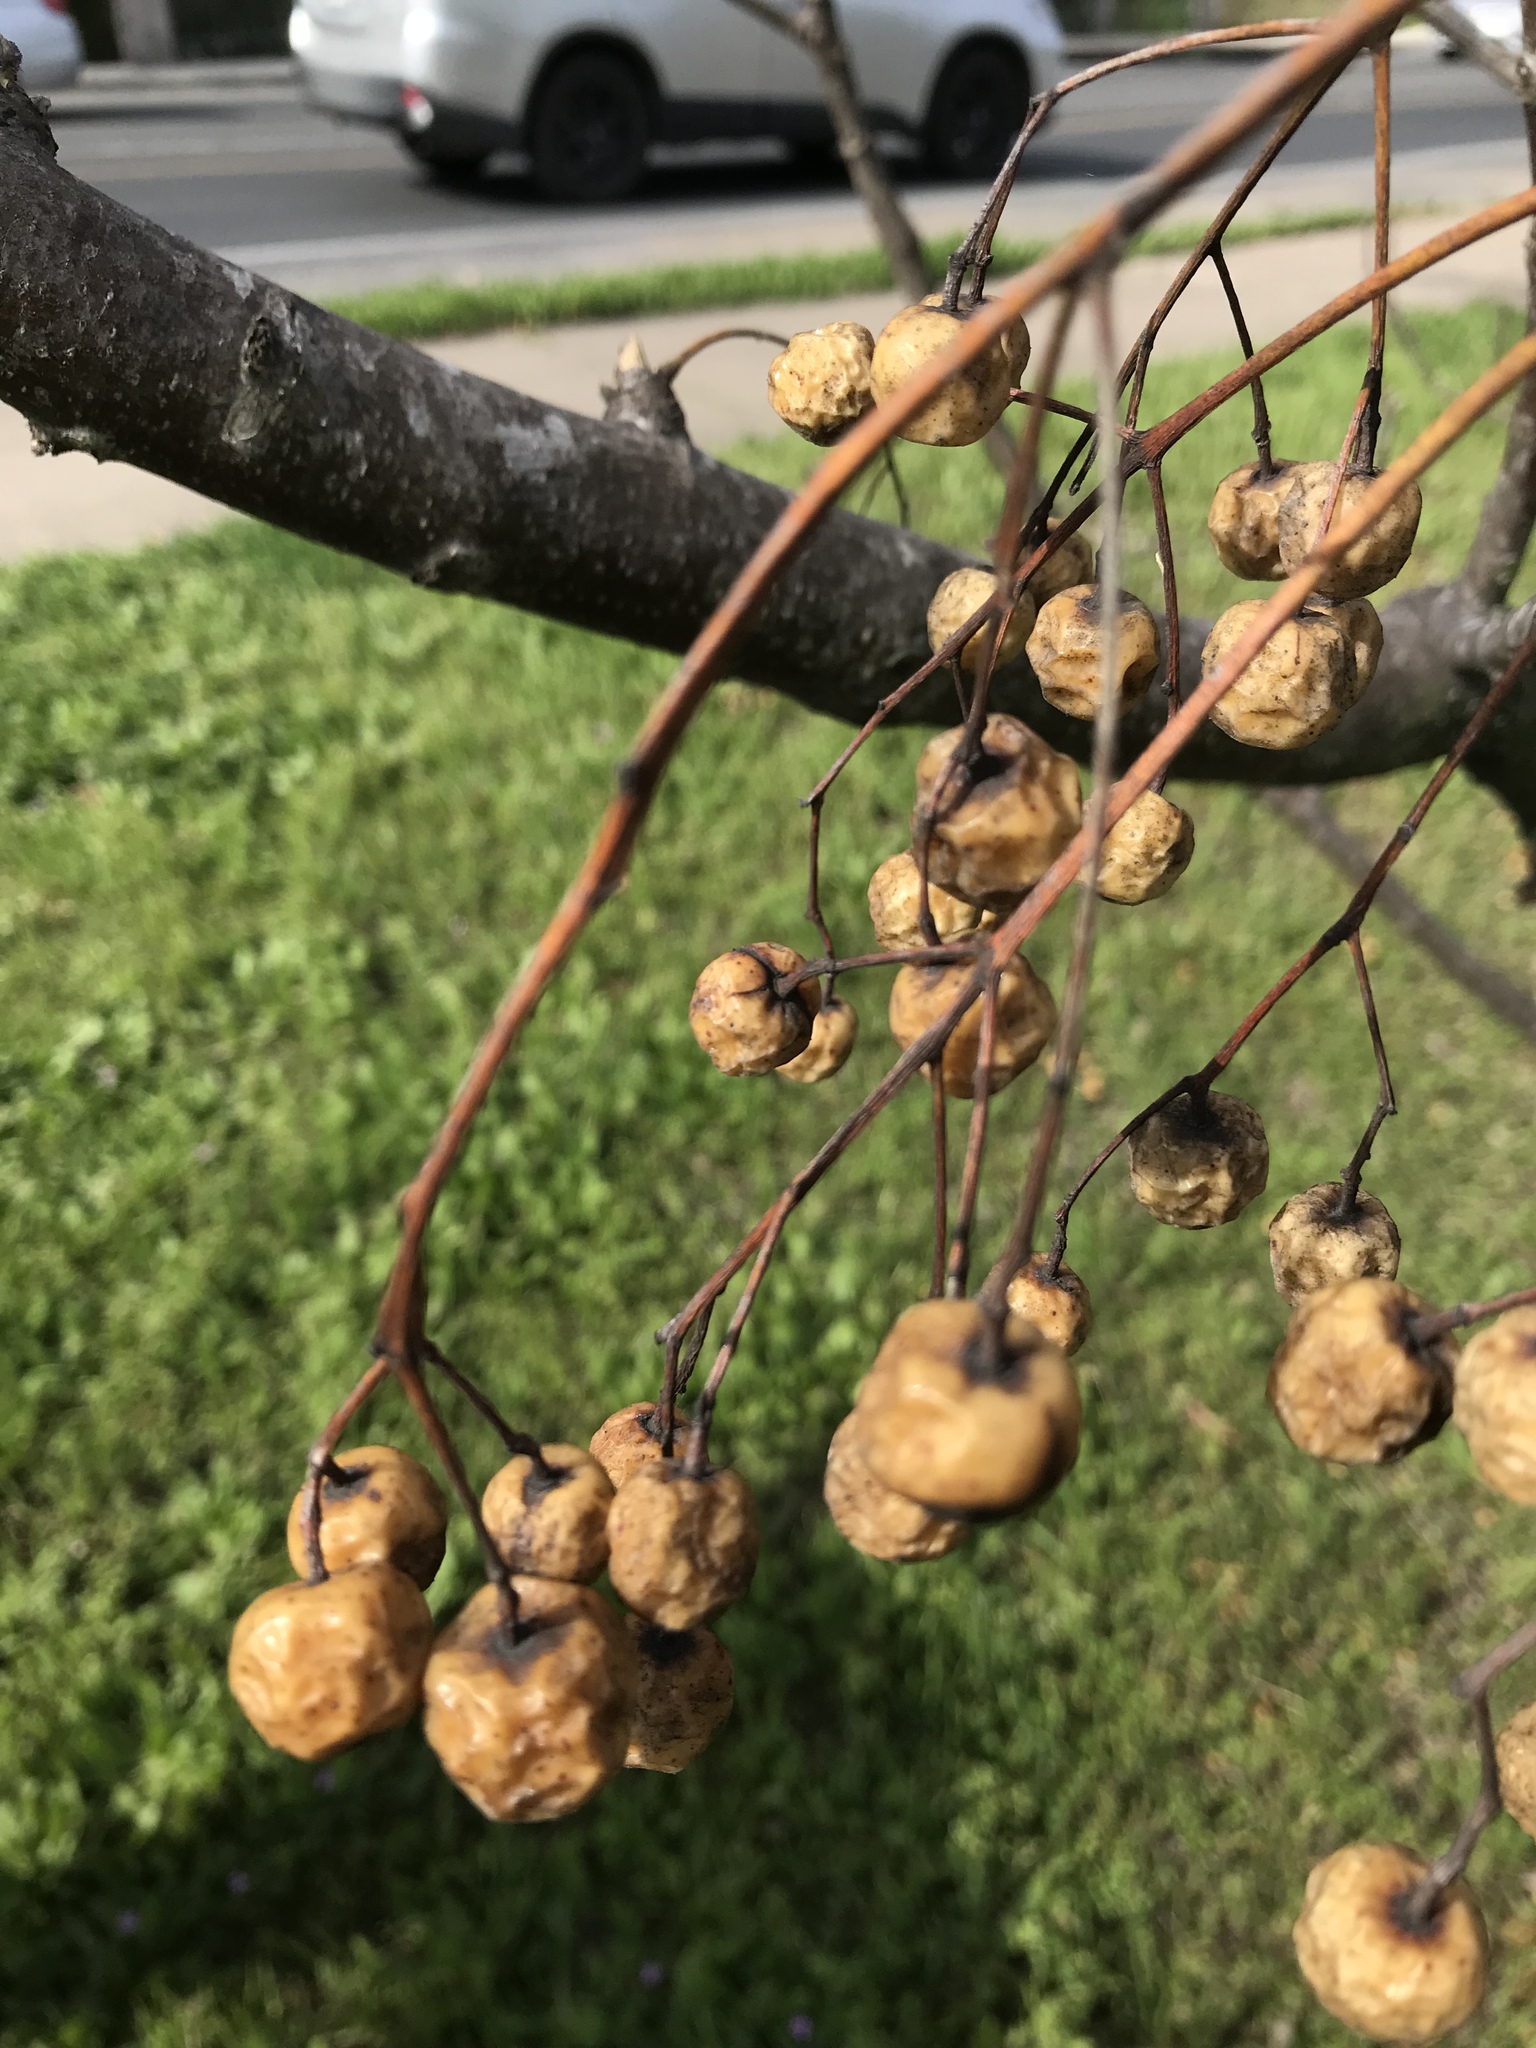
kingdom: Plantae
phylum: Tracheophyta
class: Magnoliopsida
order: Sapindales
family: Meliaceae
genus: Melia
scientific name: Melia azedarach
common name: Chinaberrytree
